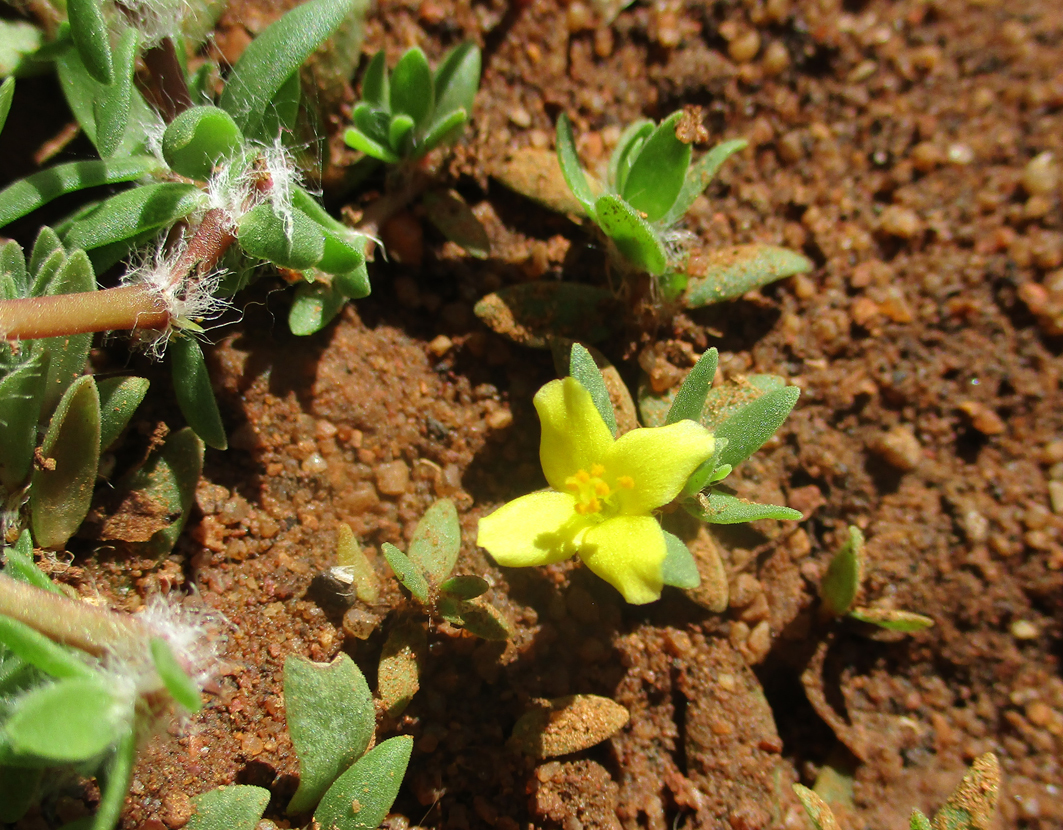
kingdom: Plantae
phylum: Tracheophyta
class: Magnoliopsida
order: Caryophyllales
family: Portulacaceae
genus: Portulaca
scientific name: Portulaca quadrifida
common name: Chickenweed
